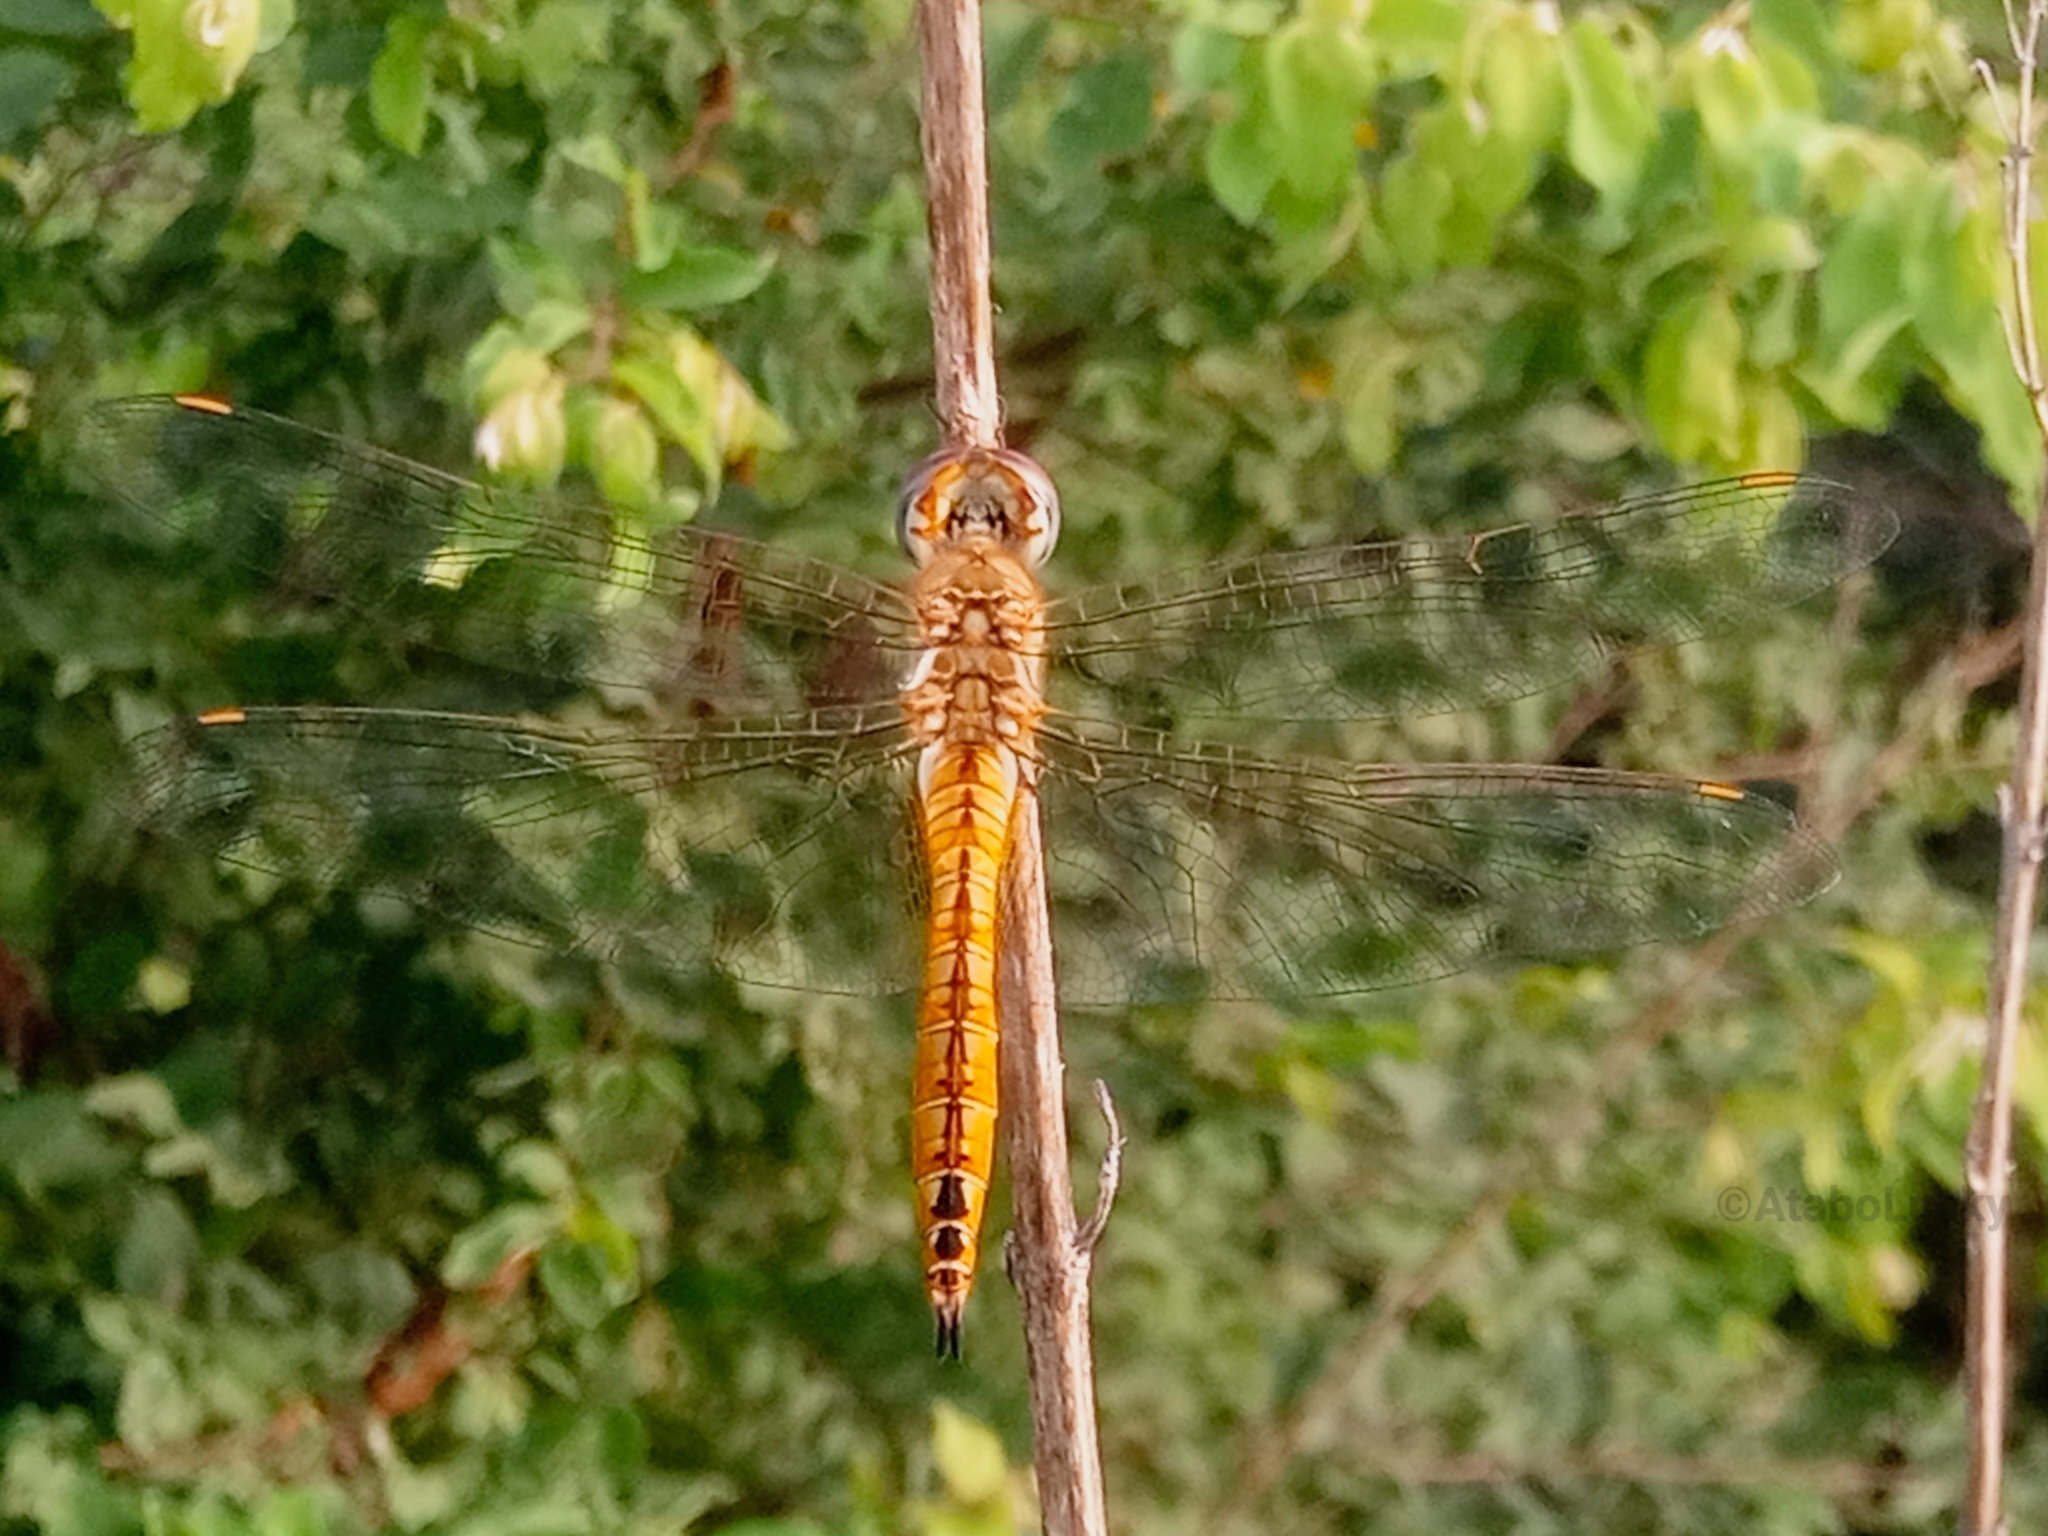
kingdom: Animalia
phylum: Arthropoda
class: Insecta
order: Odonata
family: Libellulidae
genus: Pantala
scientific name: Pantala flavescens
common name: Wandering glider
